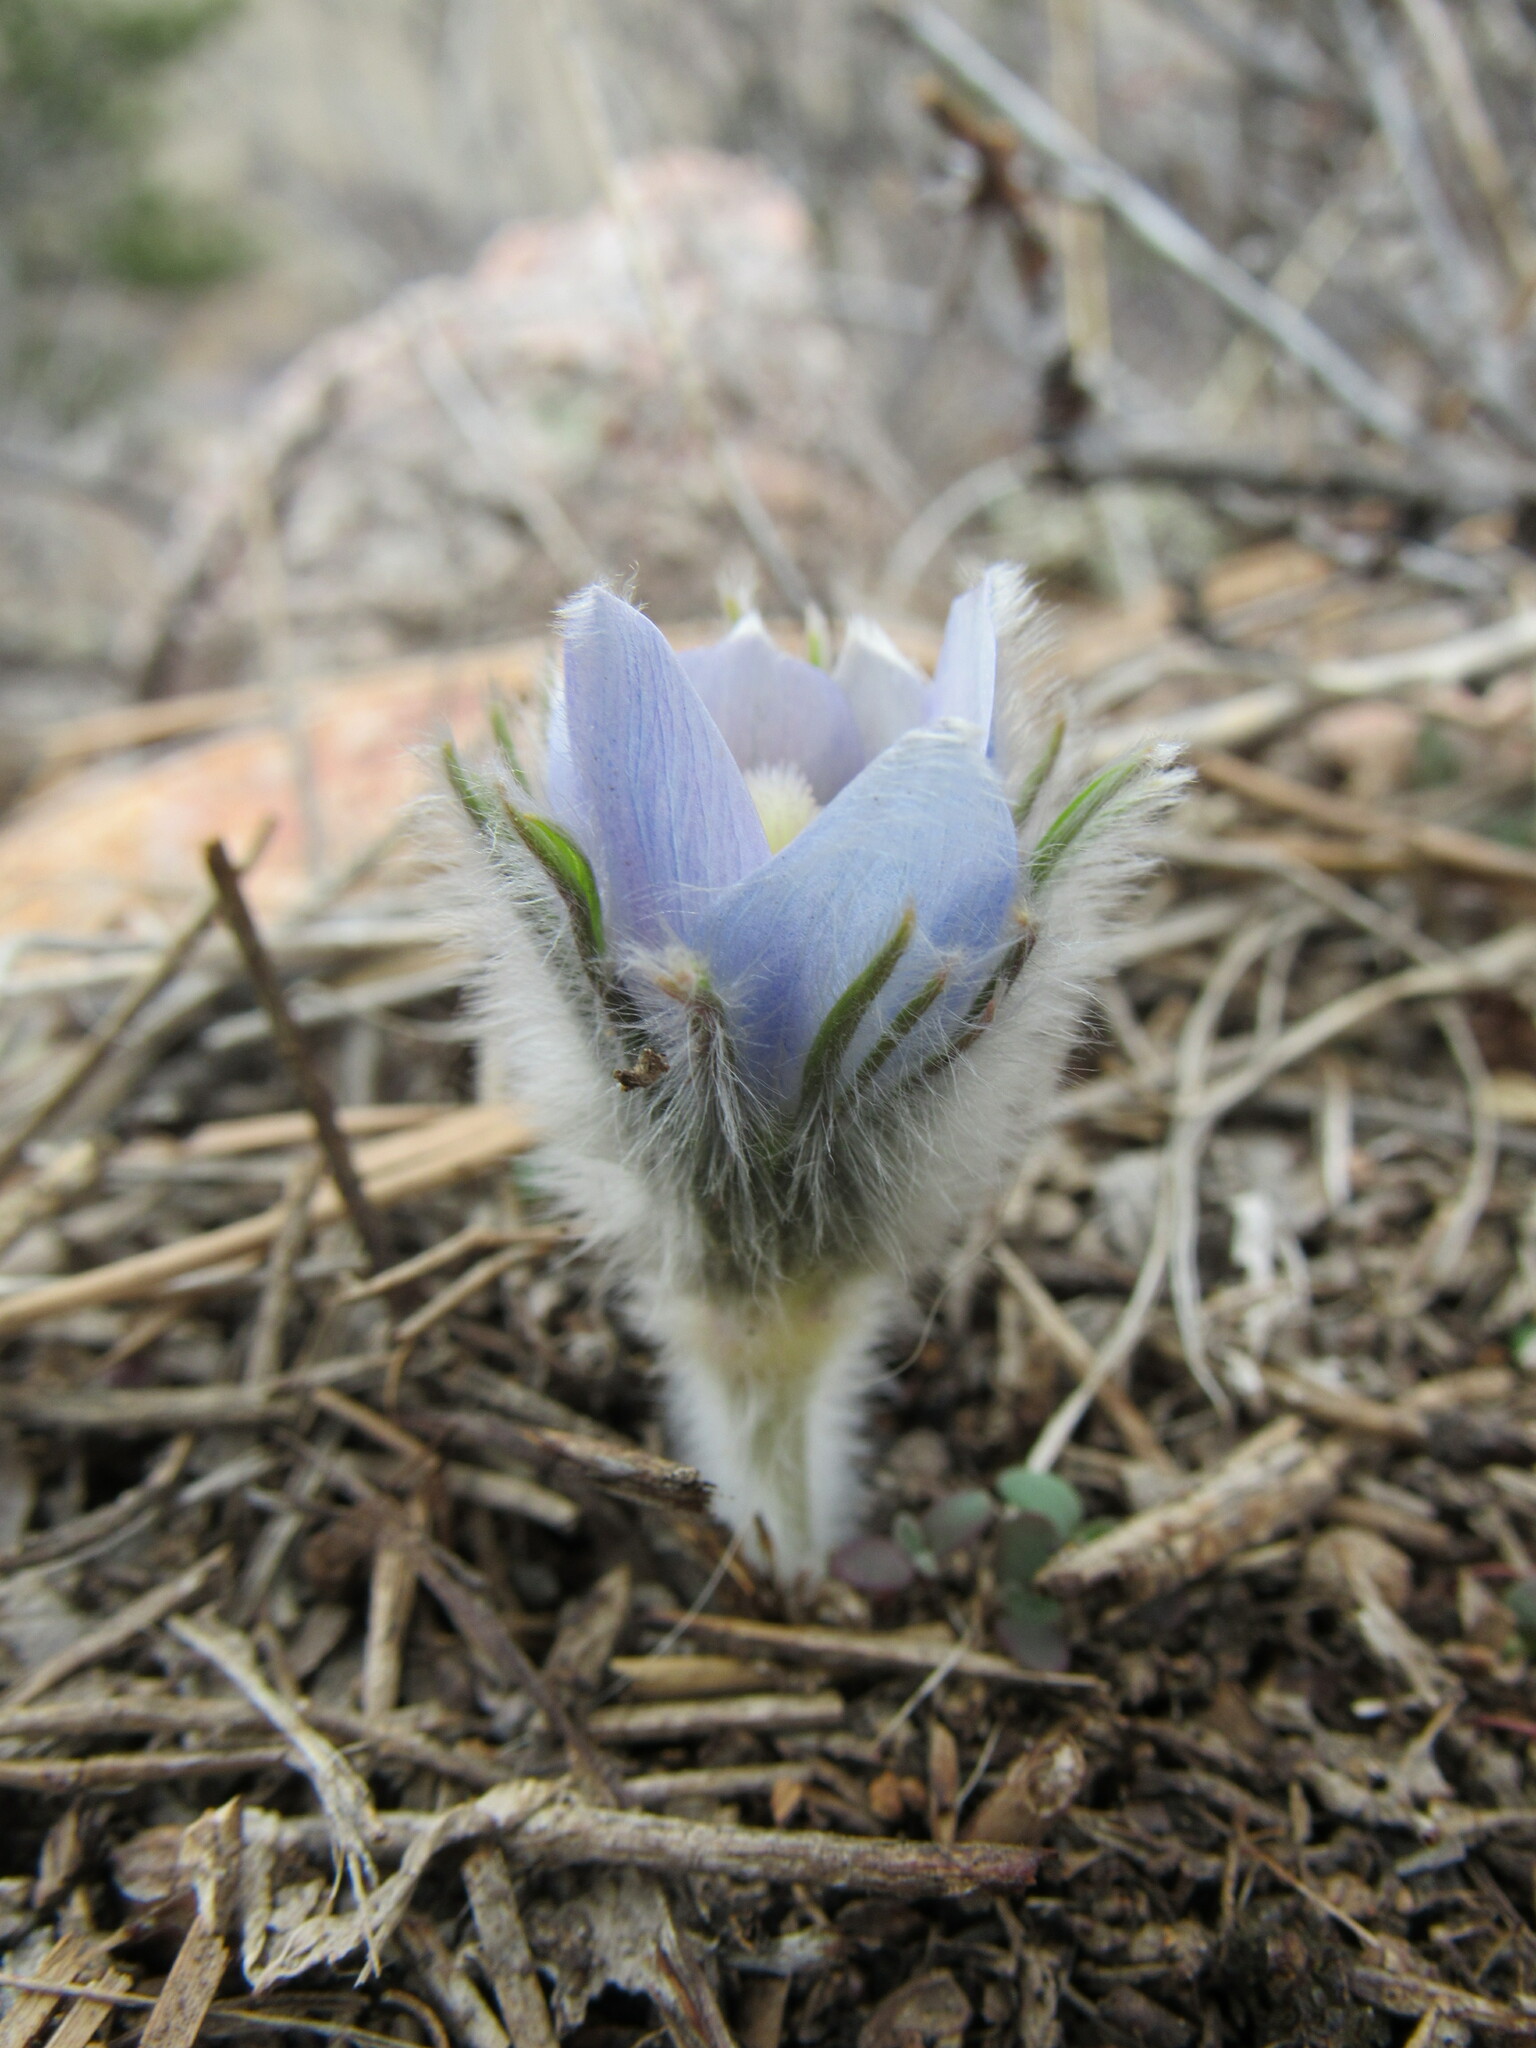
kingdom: Plantae
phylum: Tracheophyta
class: Magnoliopsida
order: Ranunculales
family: Ranunculaceae
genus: Pulsatilla
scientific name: Pulsatilla nuttalliana
